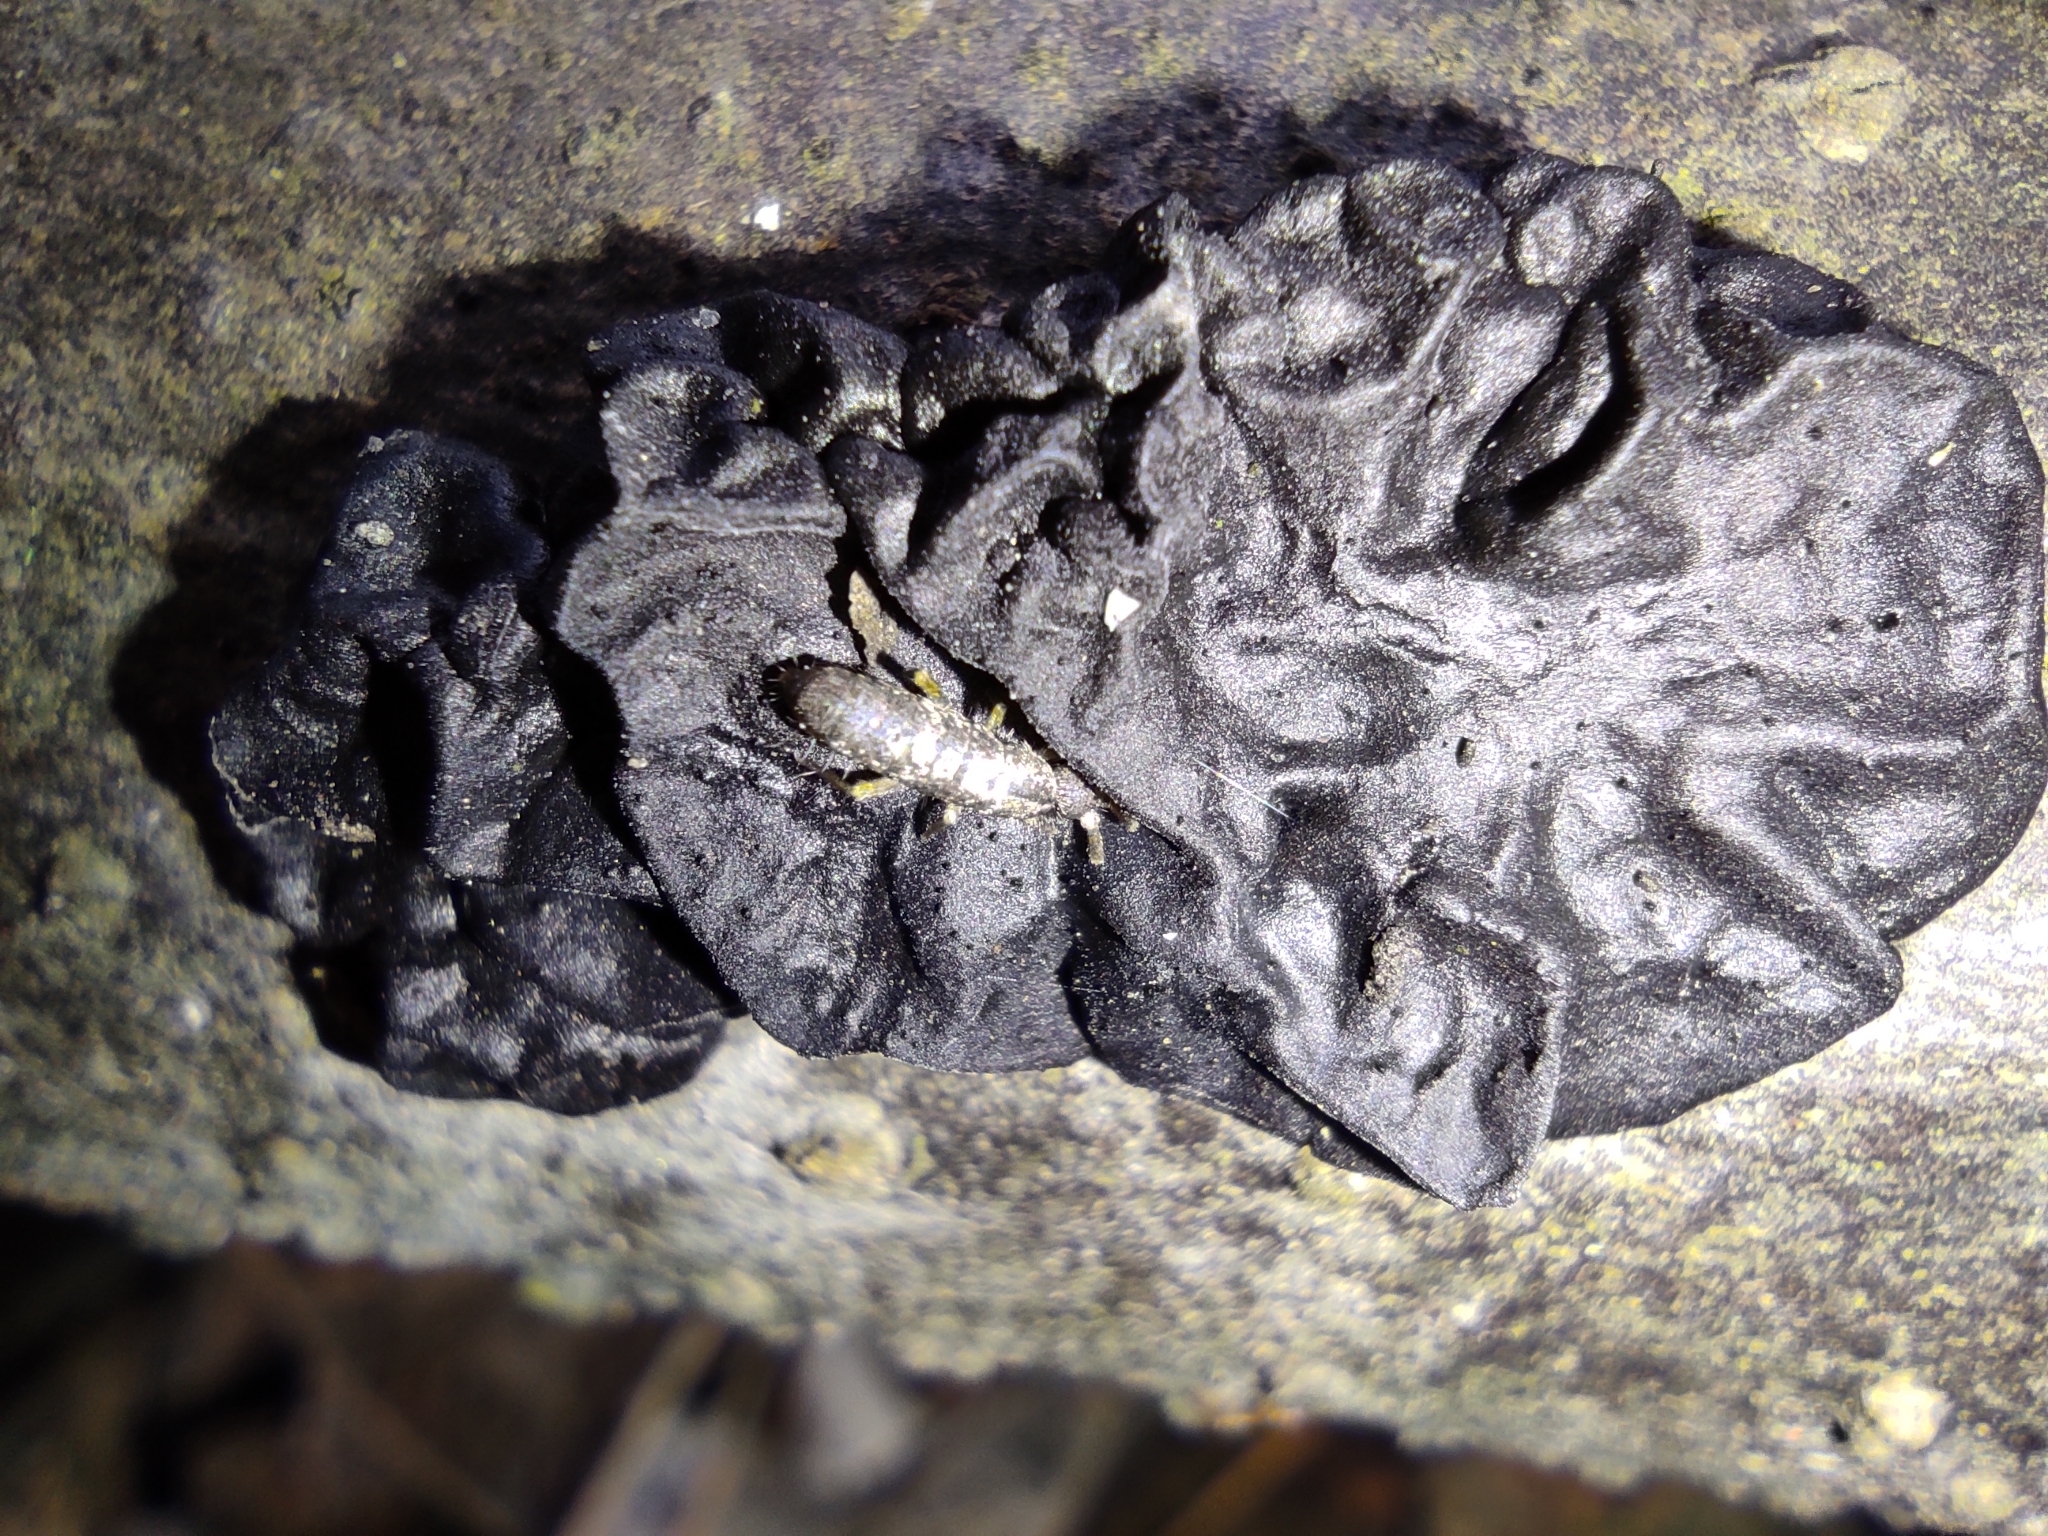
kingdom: Fungi
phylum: Basidiomycota
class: Agaricomycetes
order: Auriculariales
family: Auriculariaceae
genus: Exidia
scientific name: Exidia nigricans
